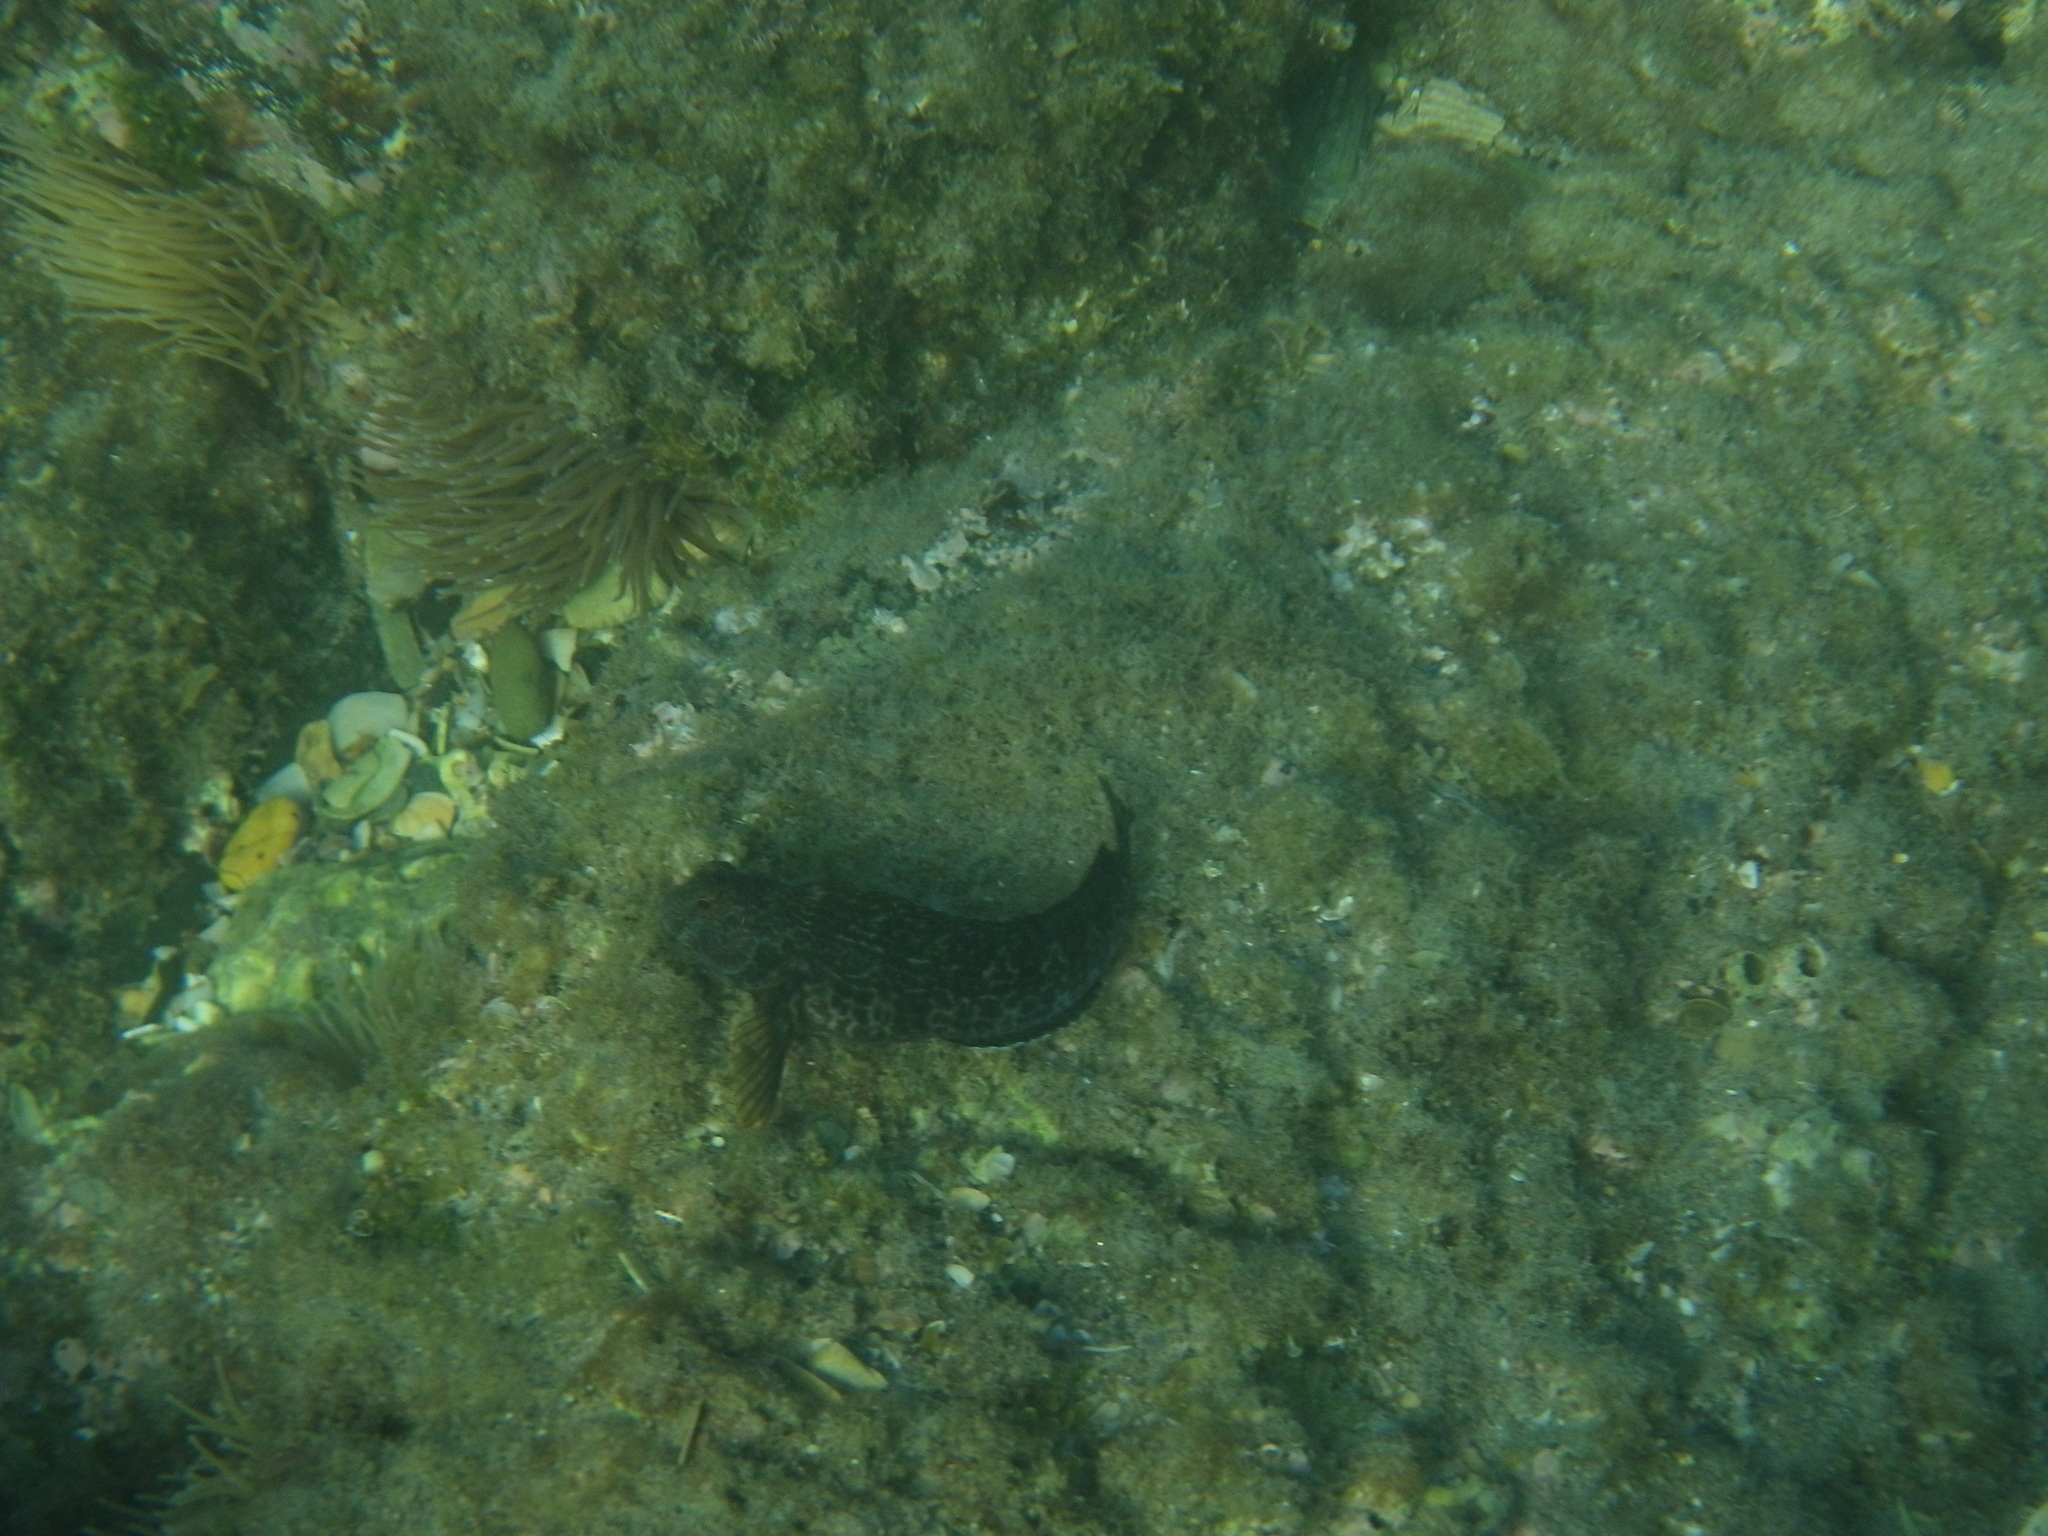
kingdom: Animalia
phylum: Chordata
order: Perciformes
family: Blenniidae
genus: Parablennius
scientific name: Parablennius pilicornis
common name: Ringneck blenny
